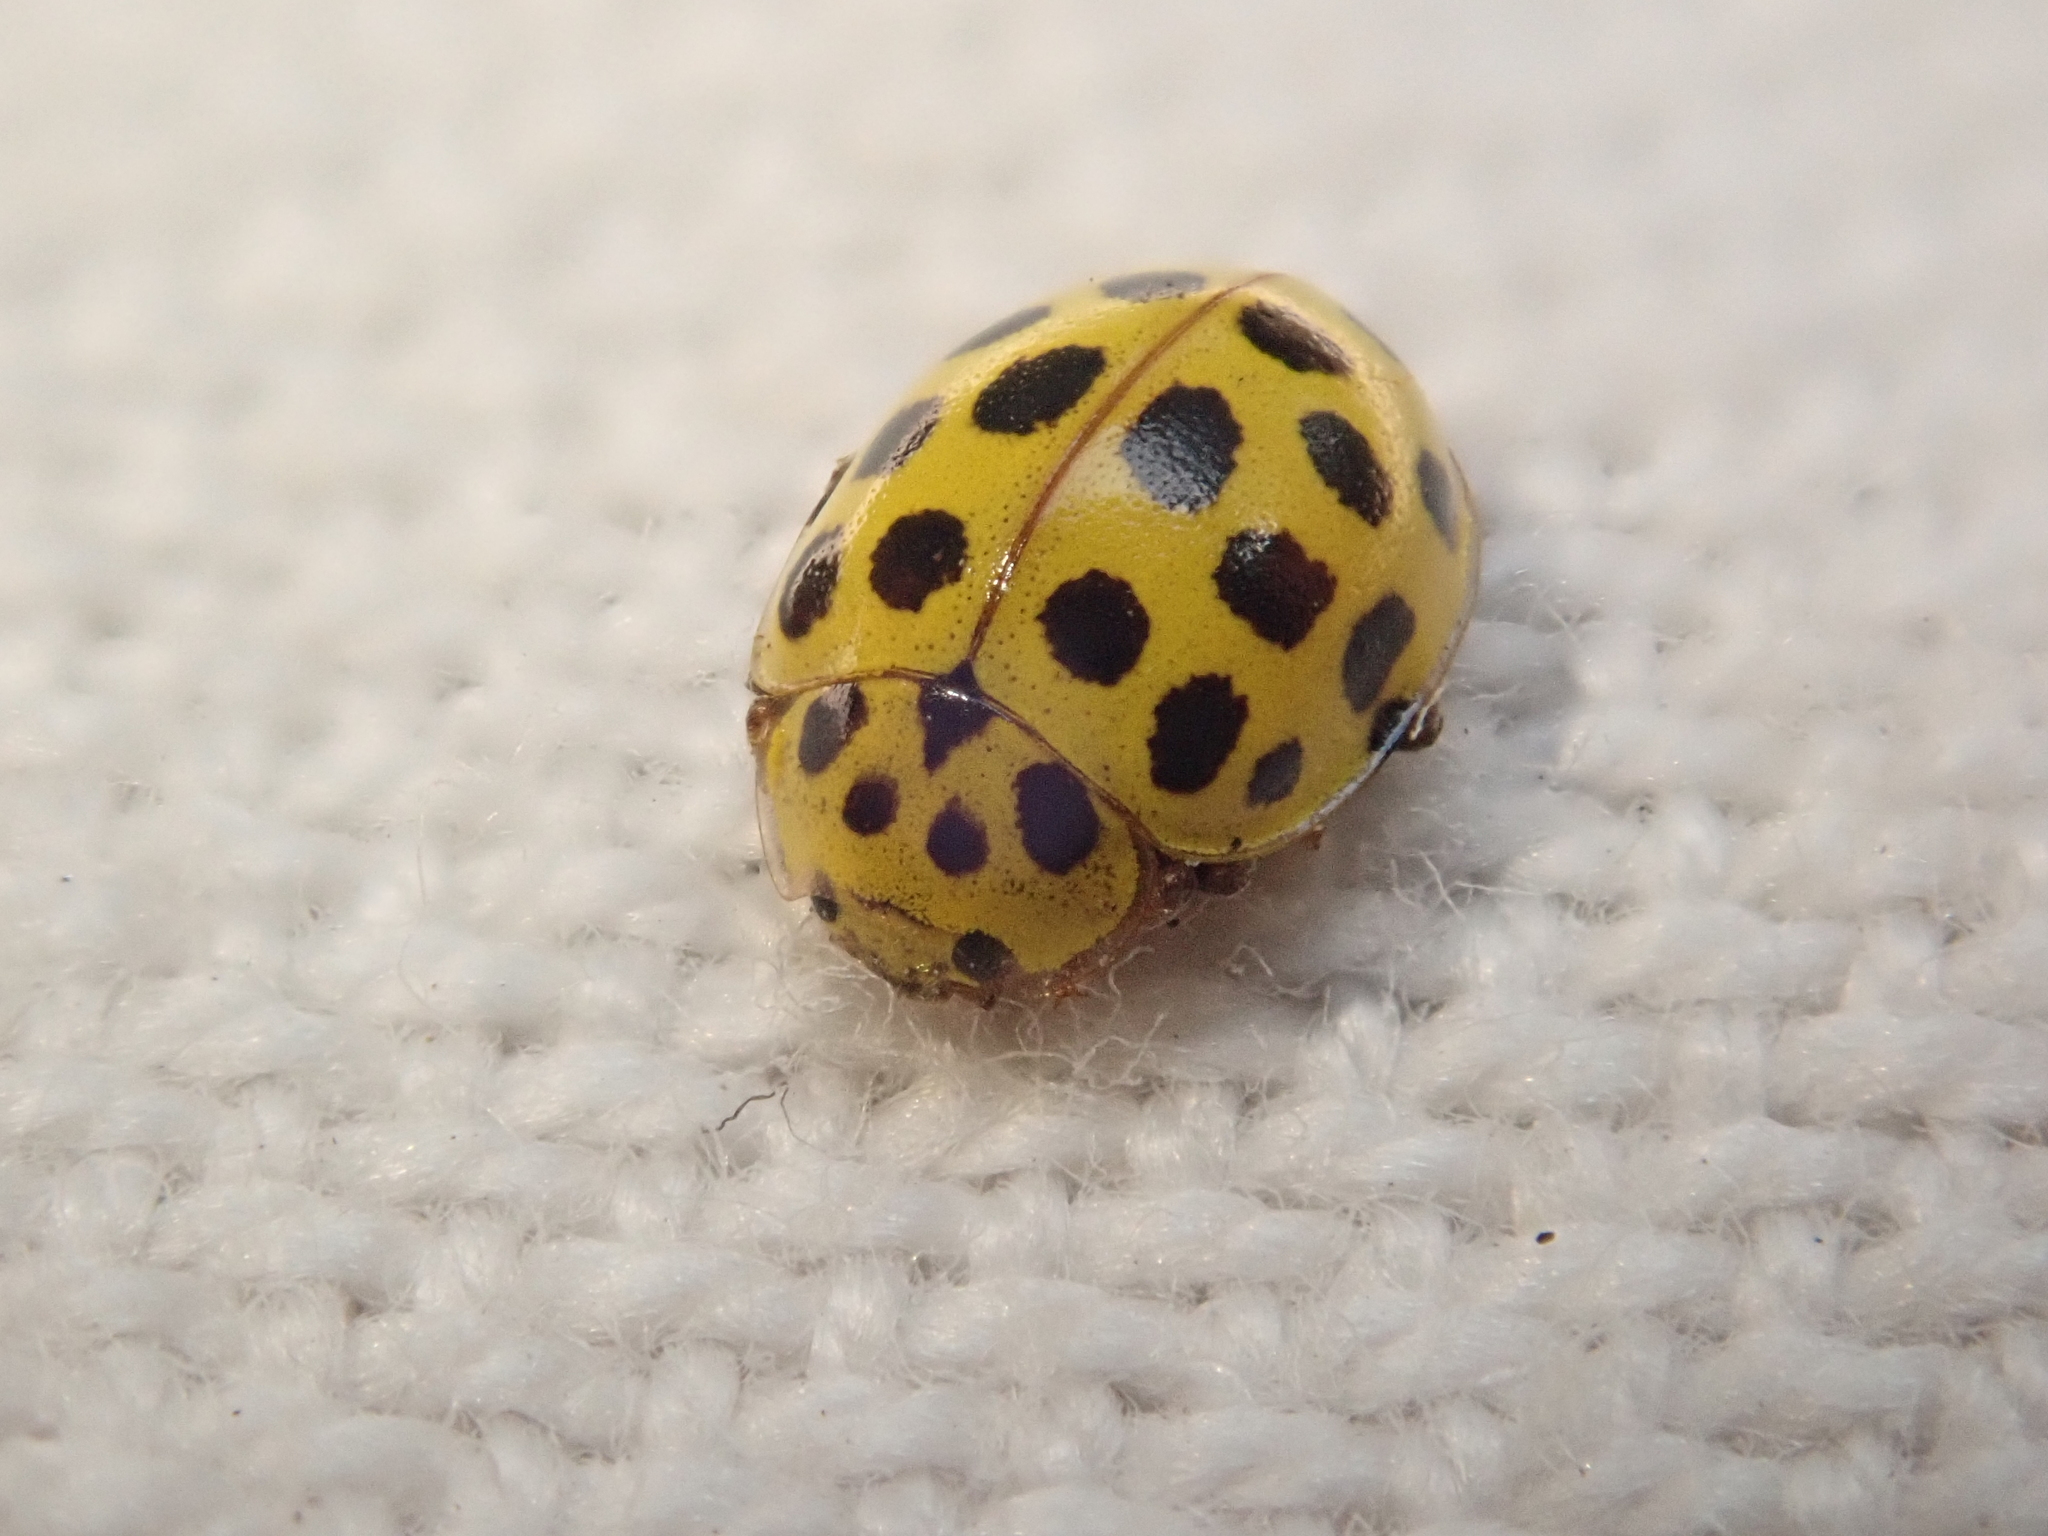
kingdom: Animalia
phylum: Arthropoda
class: Insecta
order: Coleoptera
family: Coccinellidae
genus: Psyllobora
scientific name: Psyllobora vigintiduopunctata
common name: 22-spot ladybird
